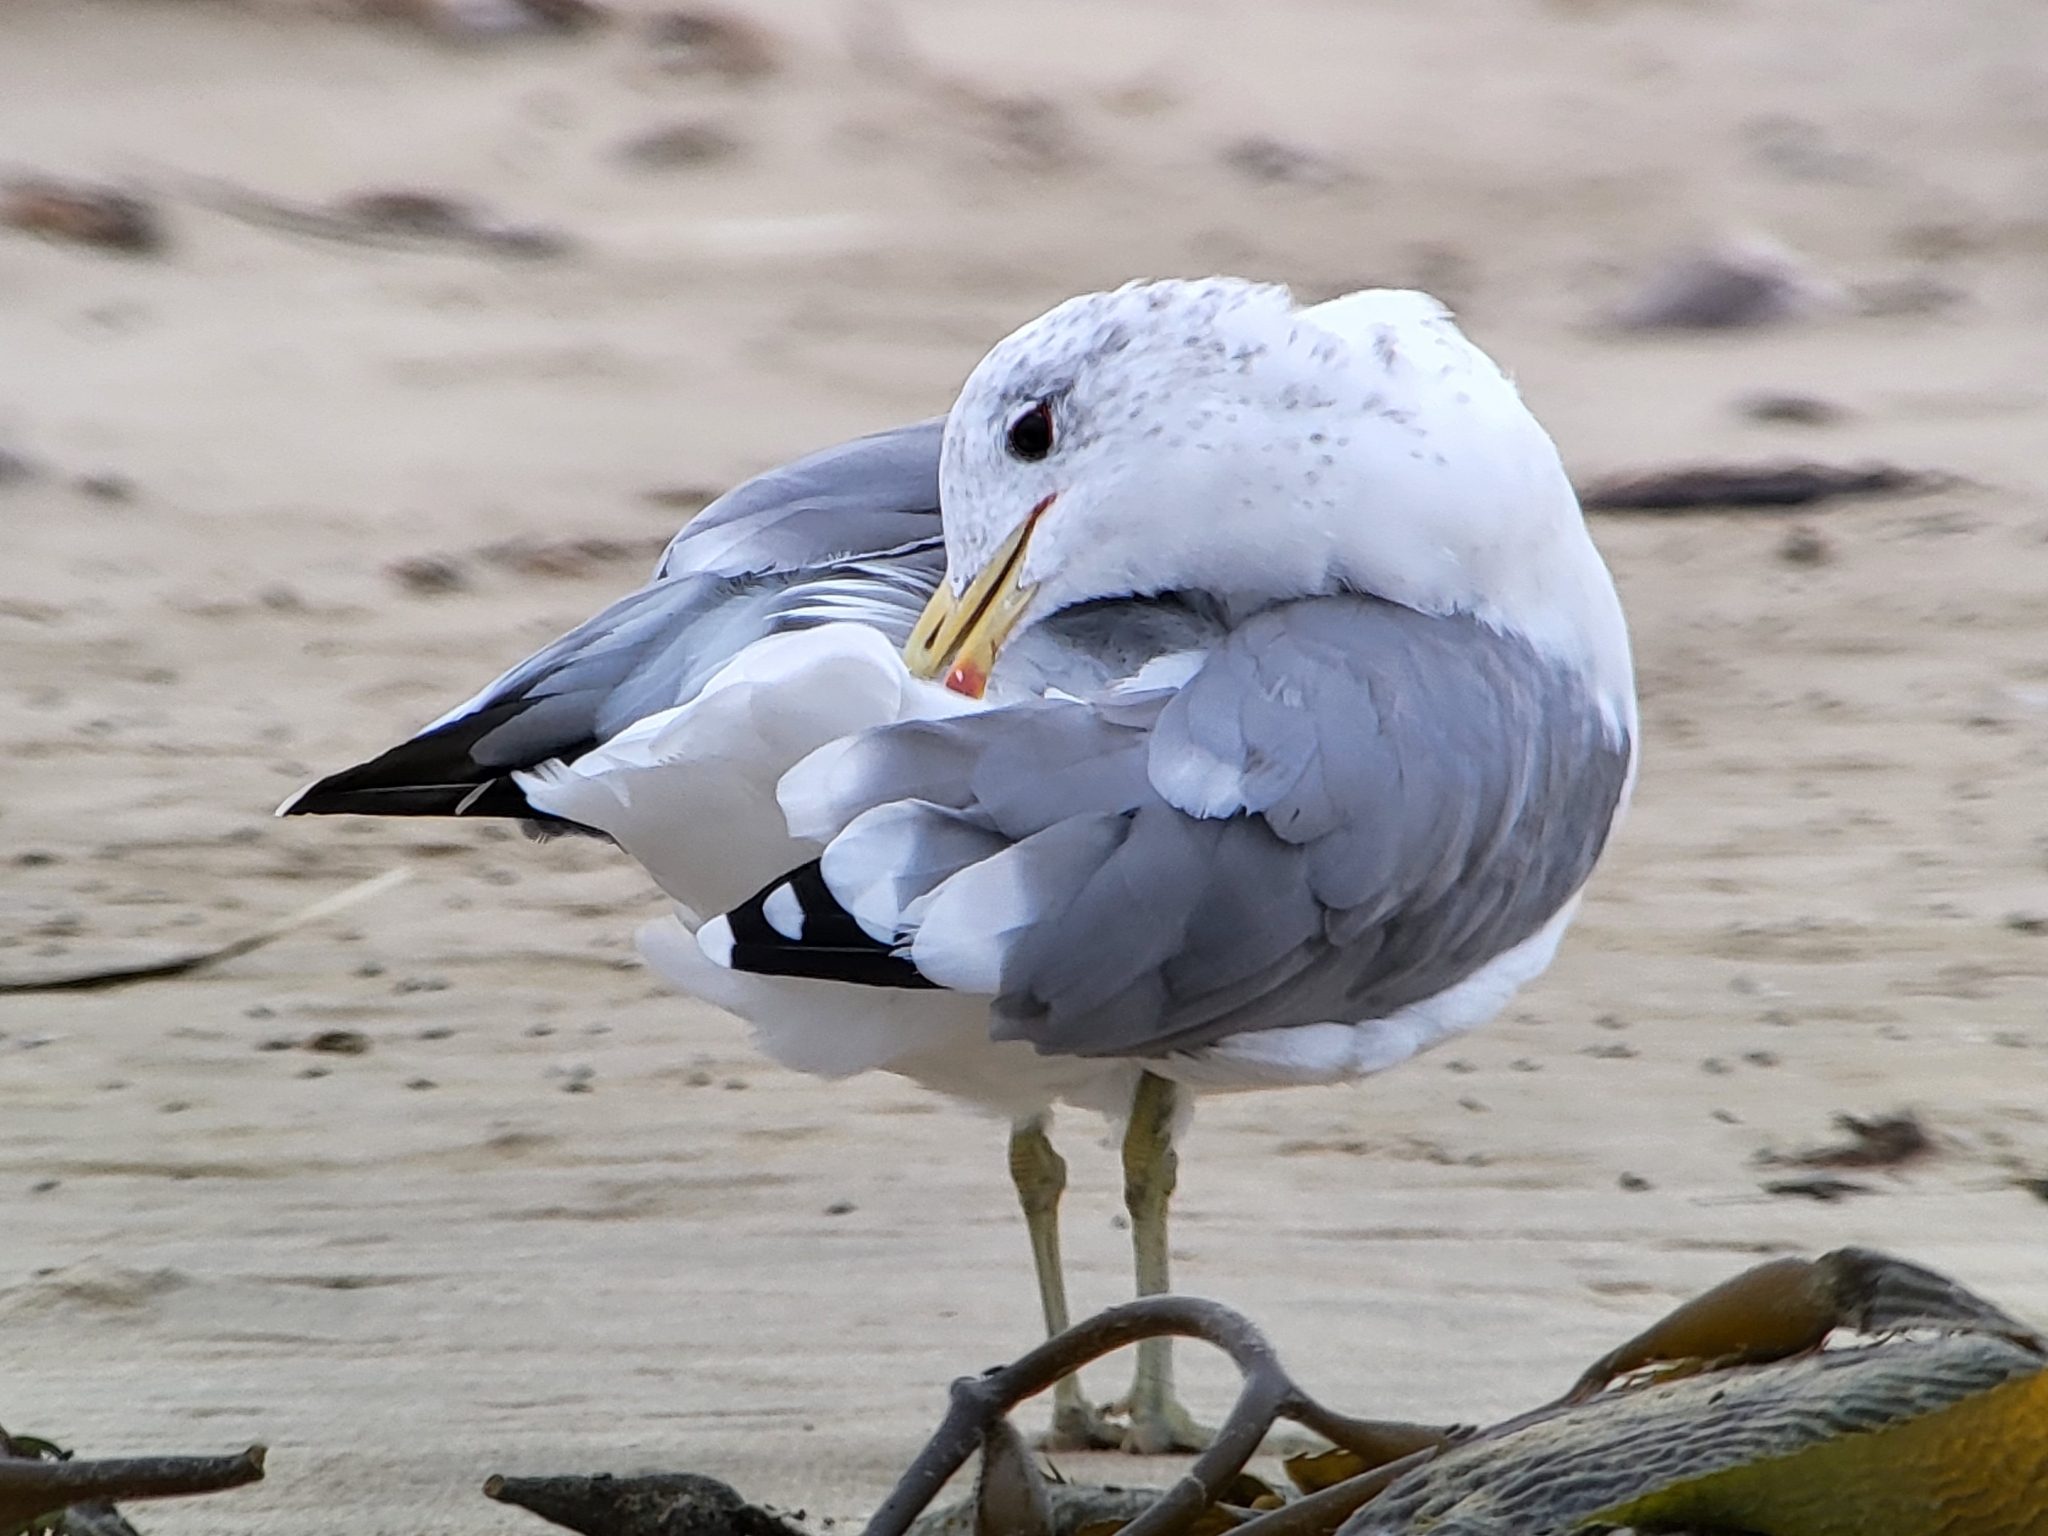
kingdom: Animalia
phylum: Chordata
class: Aves
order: Charadriiformes
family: Laridae
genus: Larus
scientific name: Larus californicus
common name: California gull
